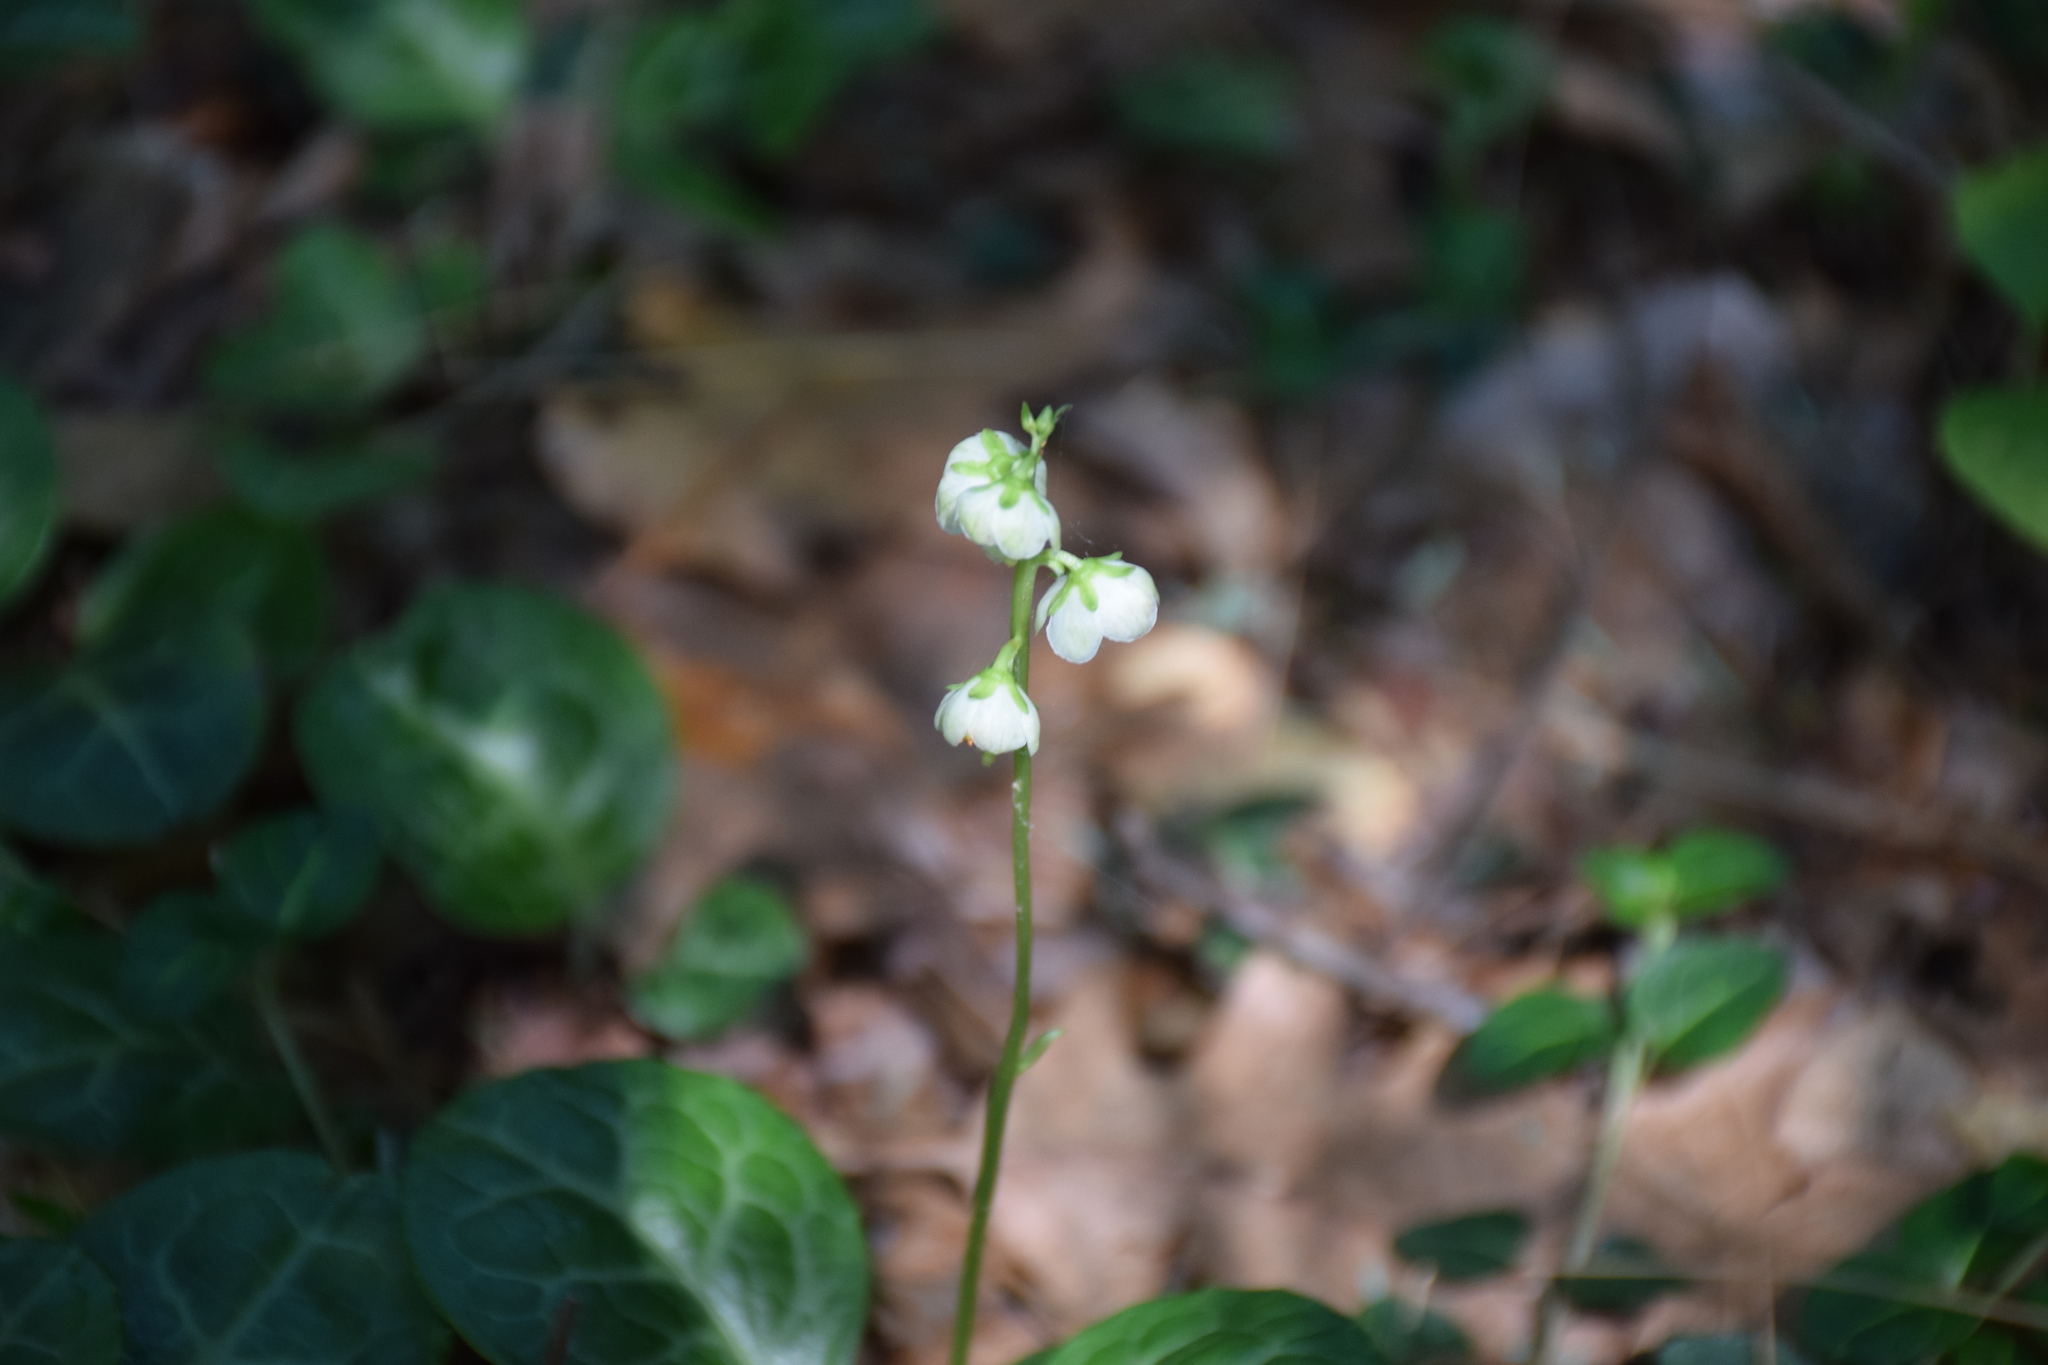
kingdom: Plantae
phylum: Tracheophyta
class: Magnoliopsida
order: Ericales
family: Ericaceae
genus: Pyrola
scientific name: Pyrola americana
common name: American wintergreen
